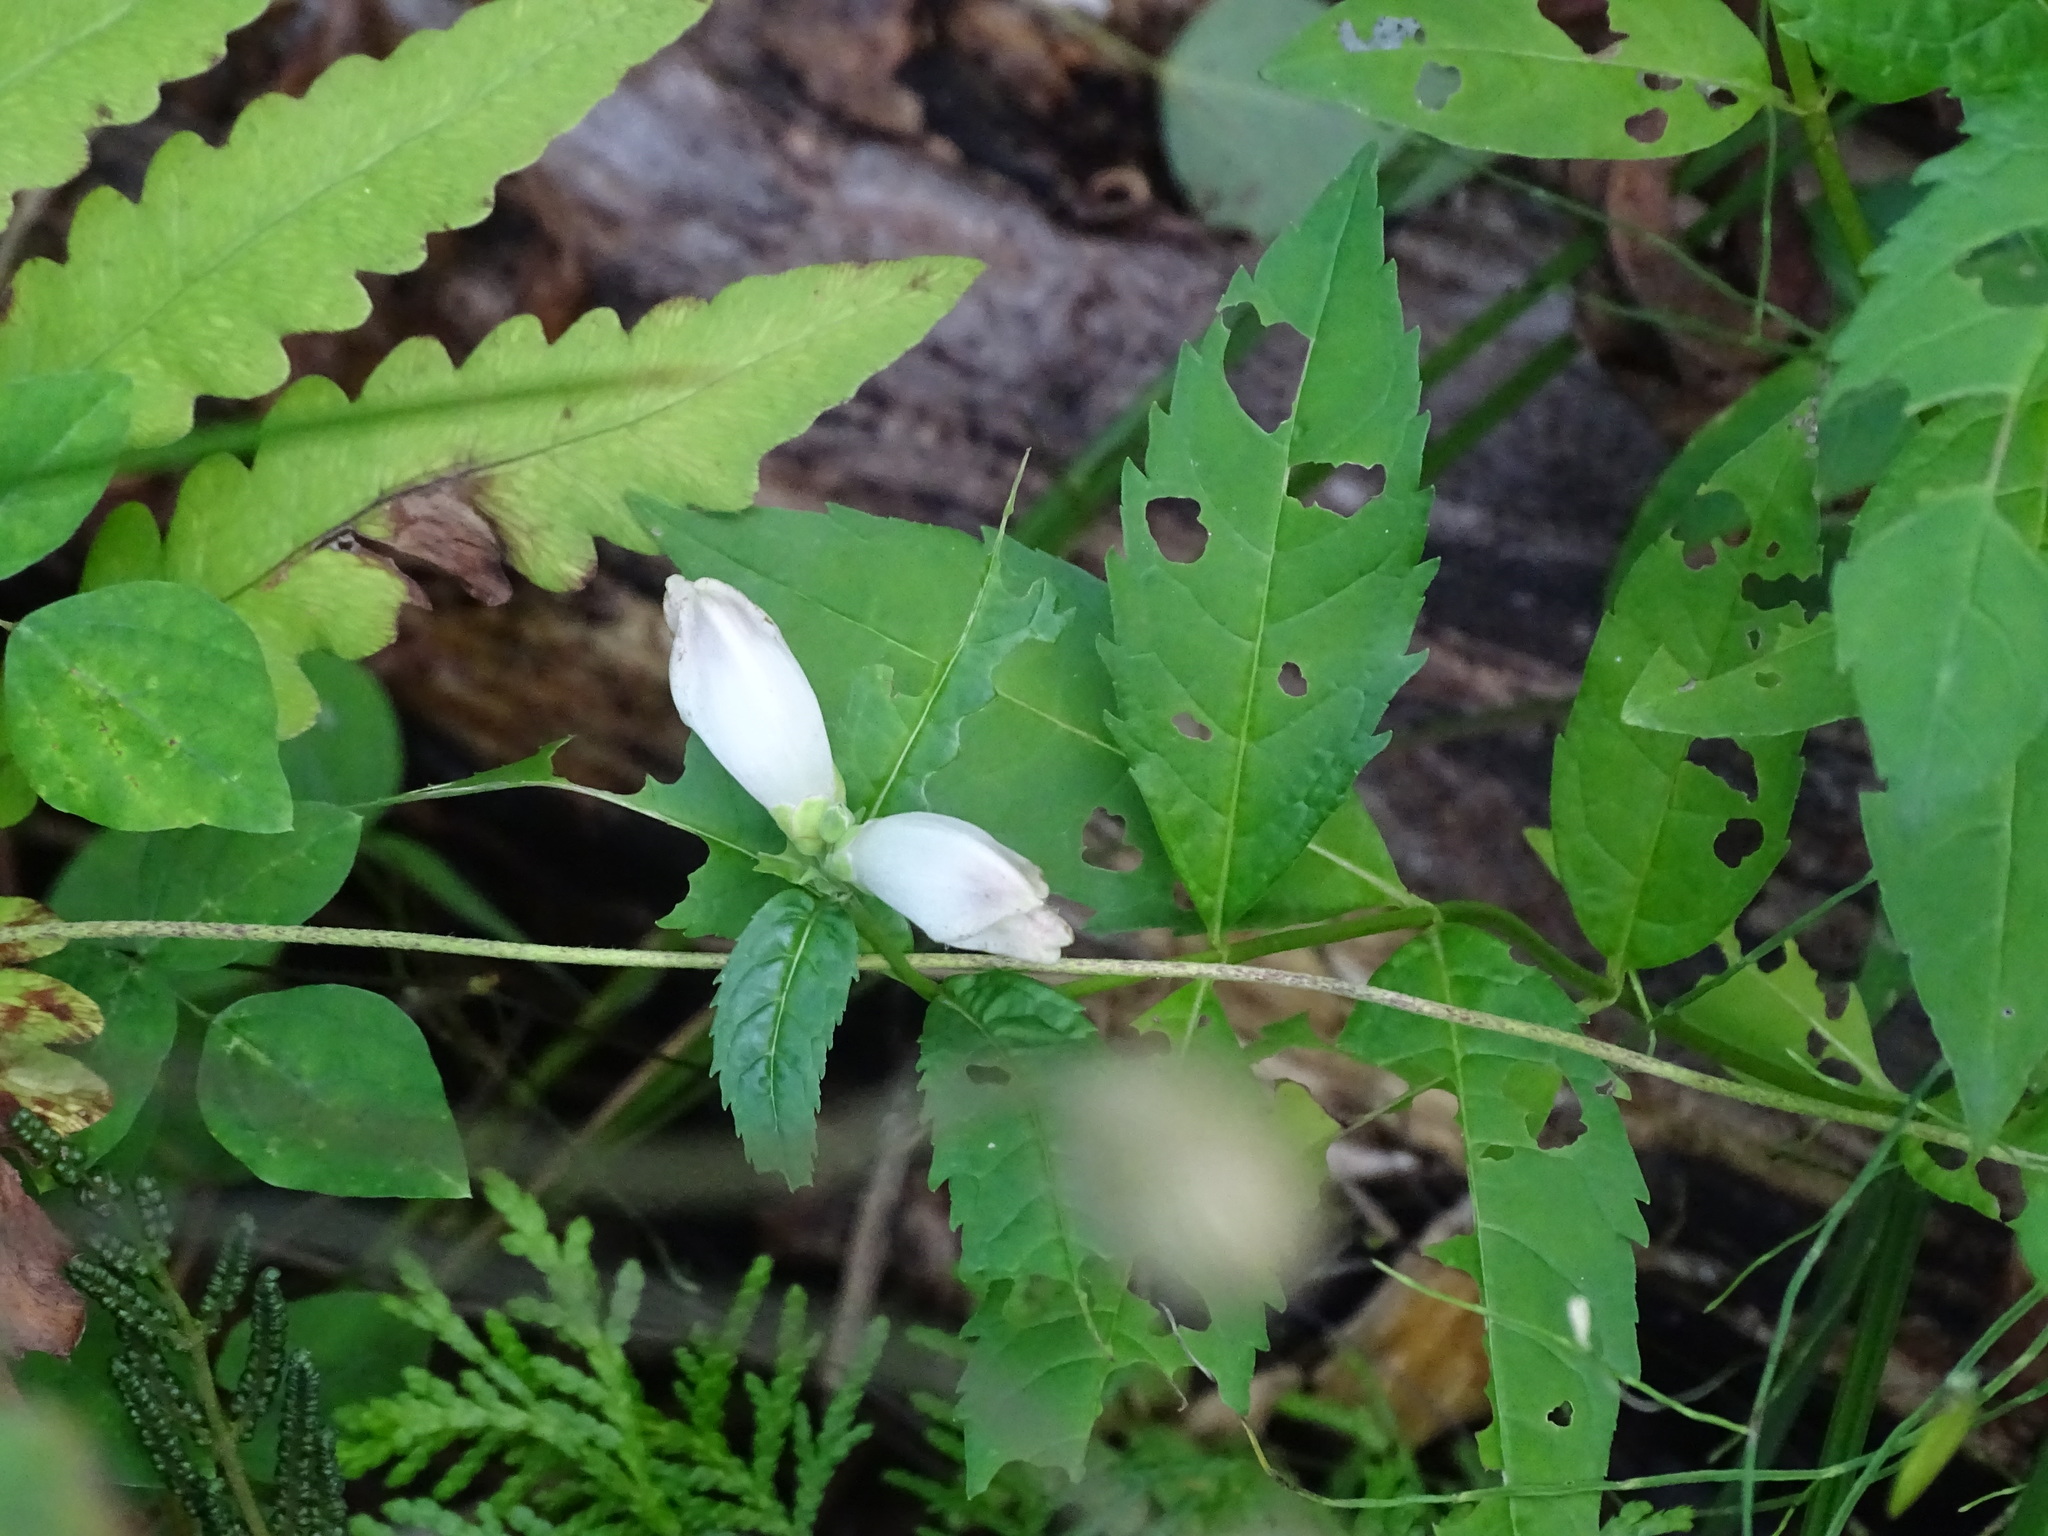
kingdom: Plantae
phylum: Tracheophyta
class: Magnoliopsida
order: Lamiales
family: Plantaginaceae
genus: Chelone
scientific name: Chelone glabra
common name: Snakehead
